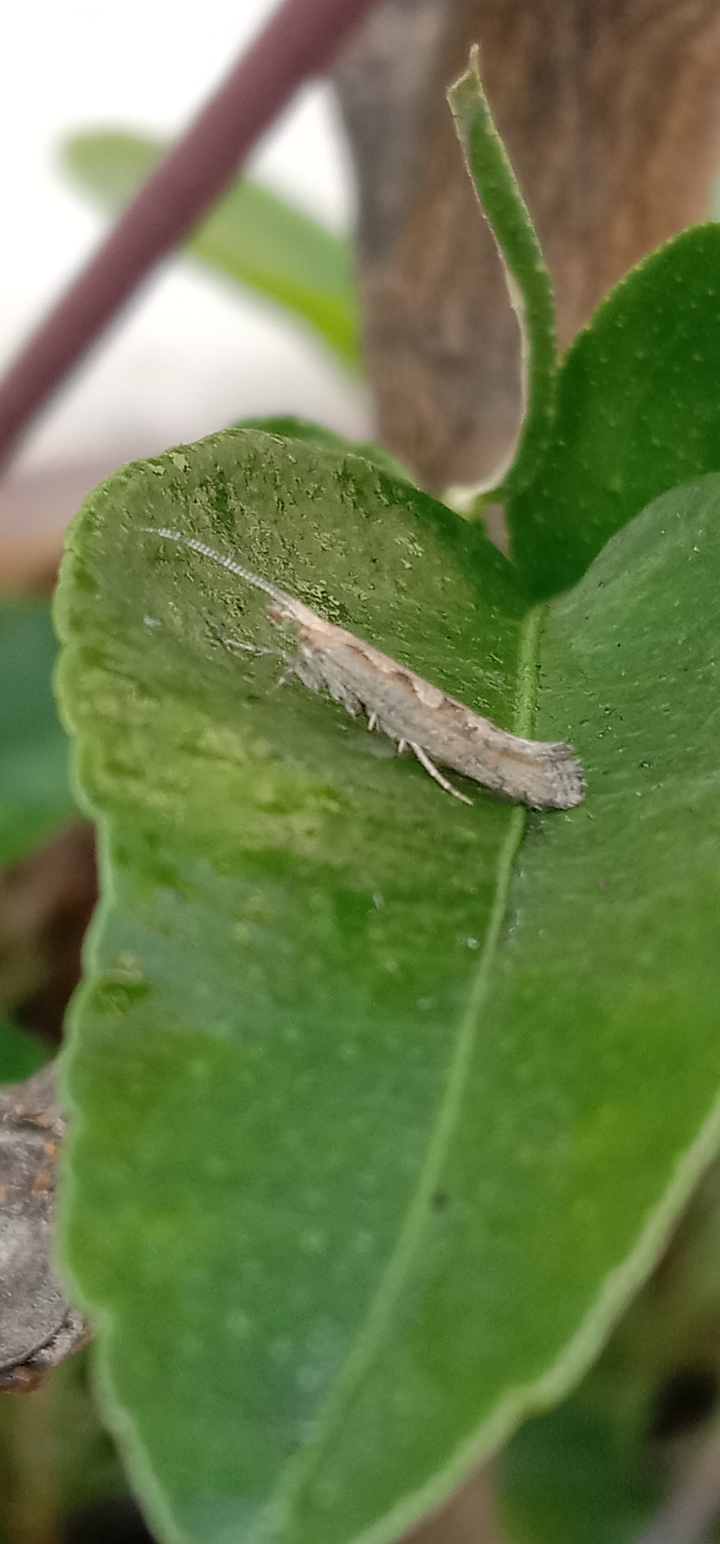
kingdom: Animalia
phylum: Arthropoda
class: Insecta
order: Lepidoptera
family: Plutellidae
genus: Plutella
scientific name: Plutella xylostella
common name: Diamond-back moth
